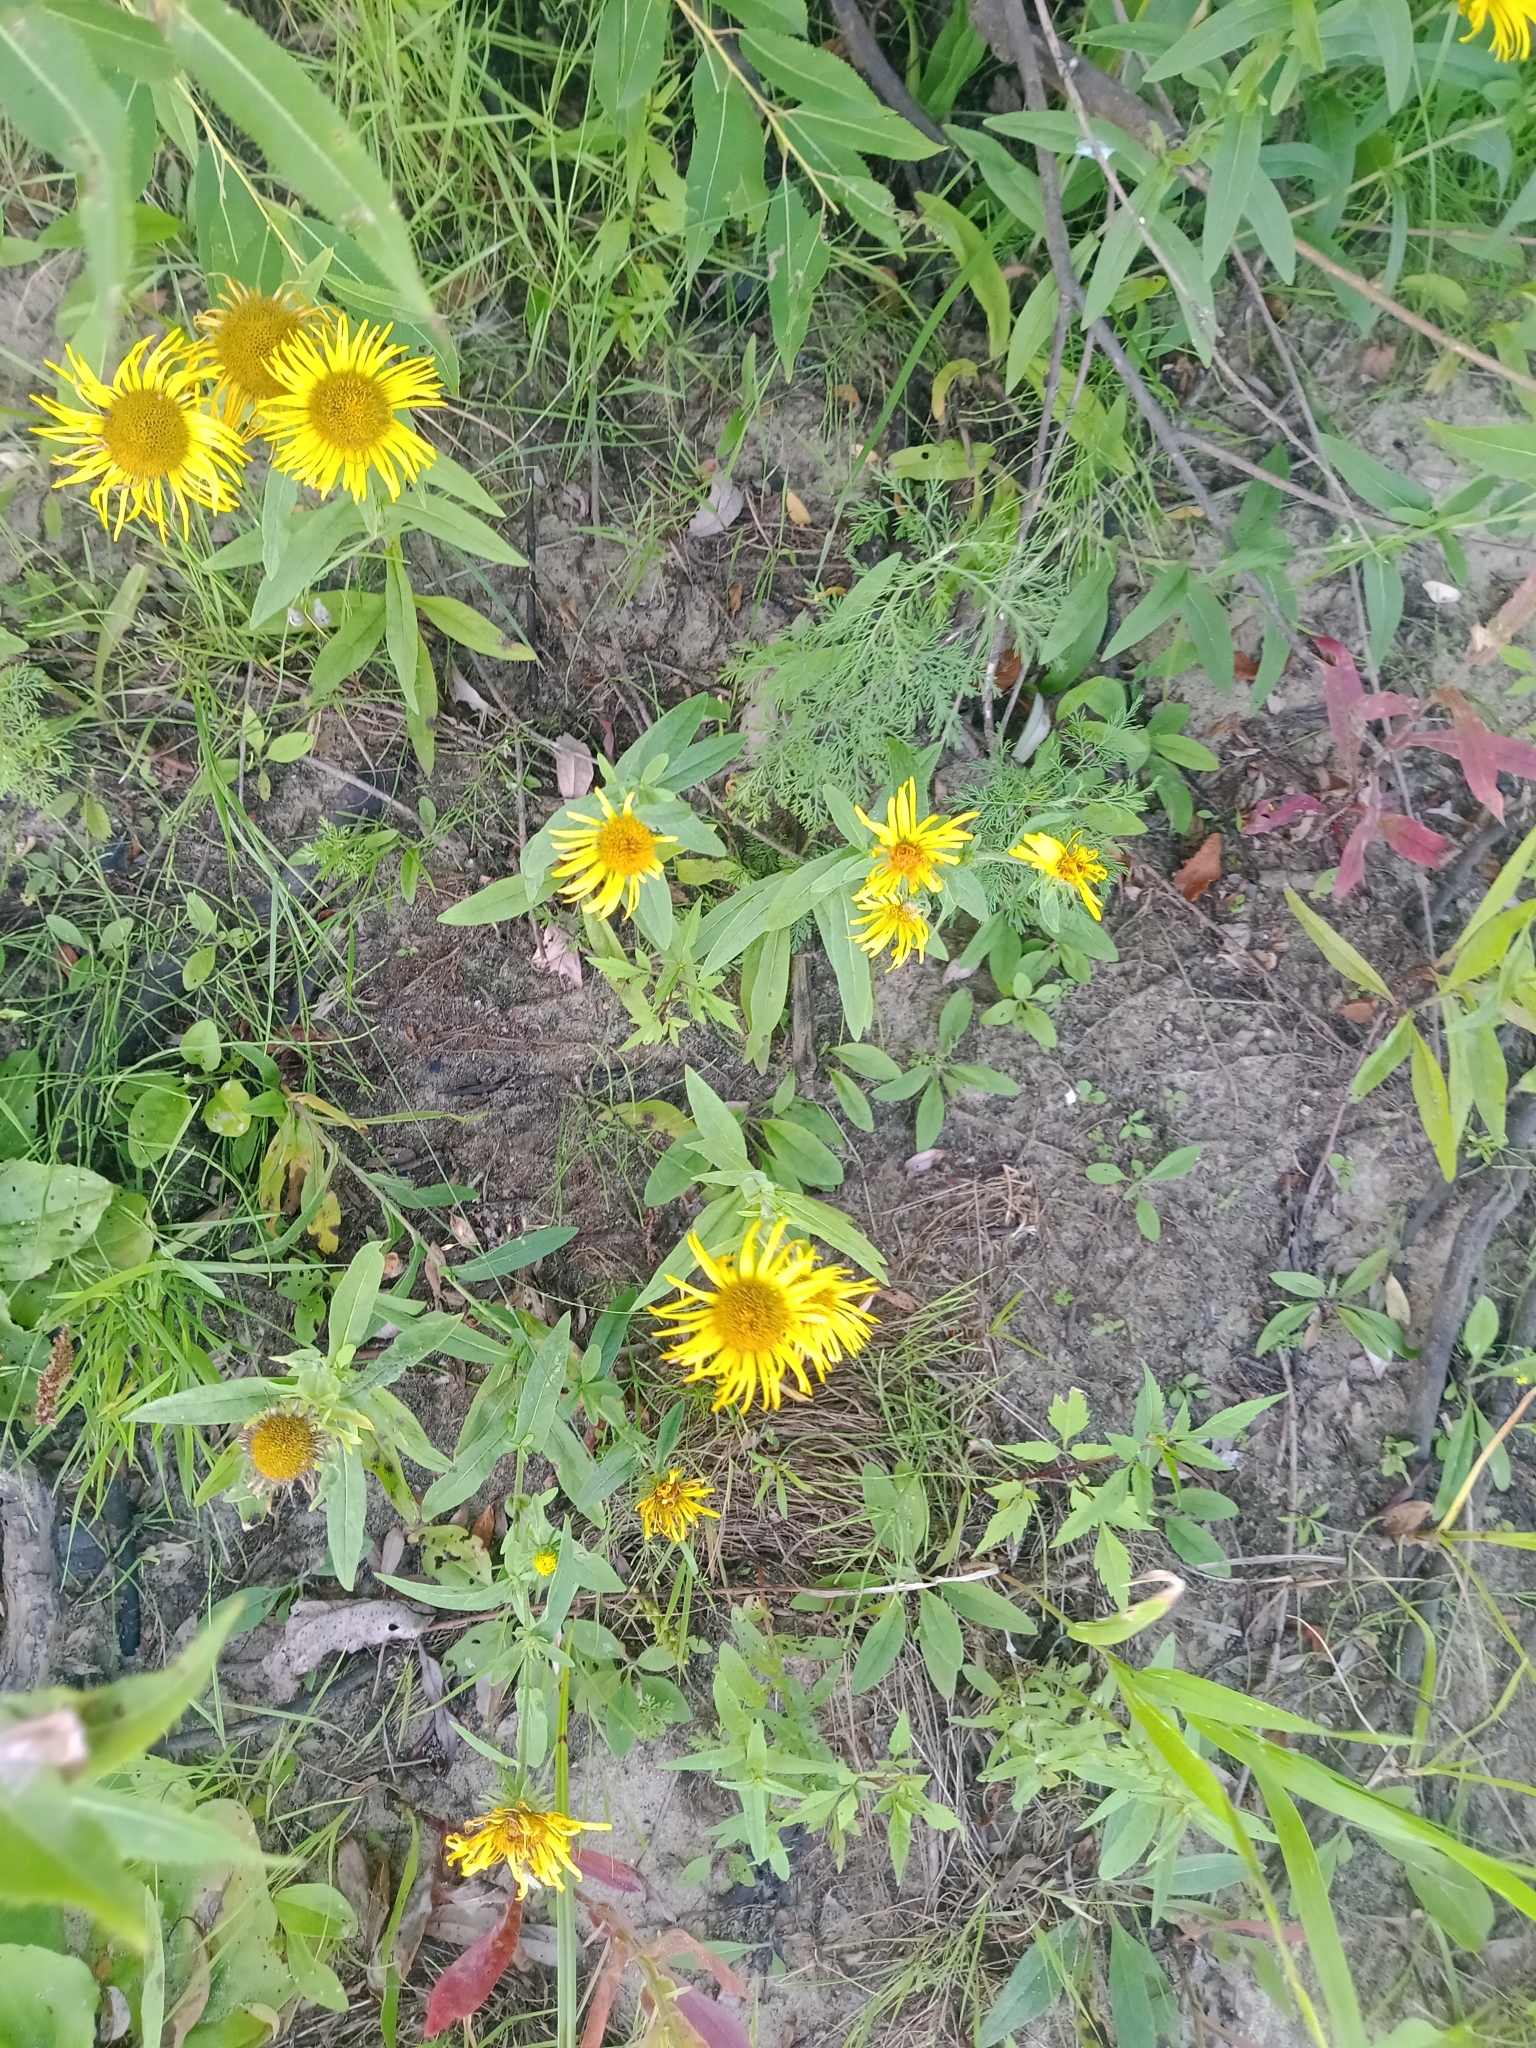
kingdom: Plantae
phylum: Tracheophyta
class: Magnoliopsida
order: Asterales
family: Asteraceae
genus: Pentanema
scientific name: Pentanema britannicum
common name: British elecampane
